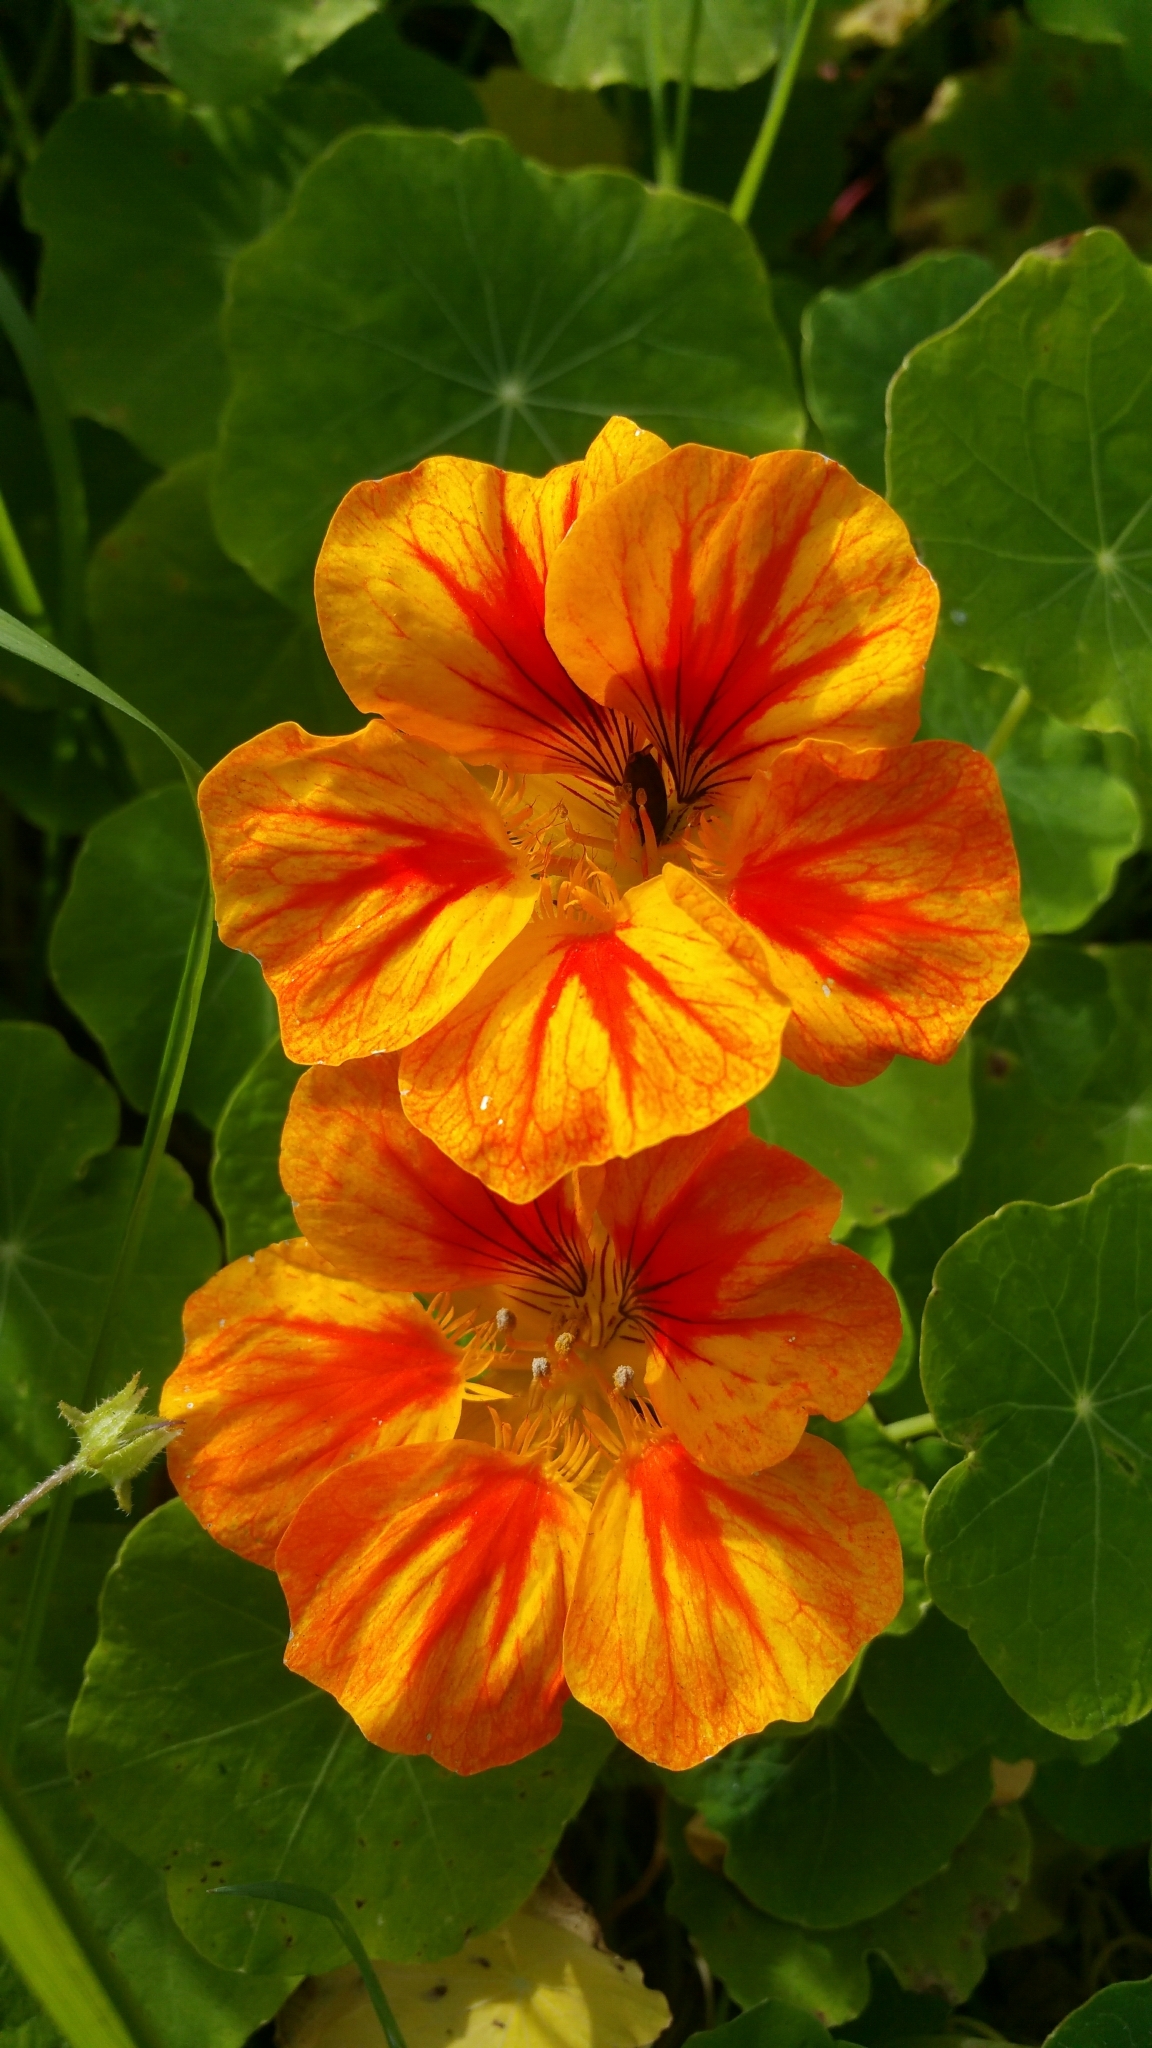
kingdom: Plantae
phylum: Tracheophyta
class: Magnoliopsida
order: Brassicales
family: Tropaeolaceae
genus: Tropaeolum
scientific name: Tropaeolum majus
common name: Nasturtium
